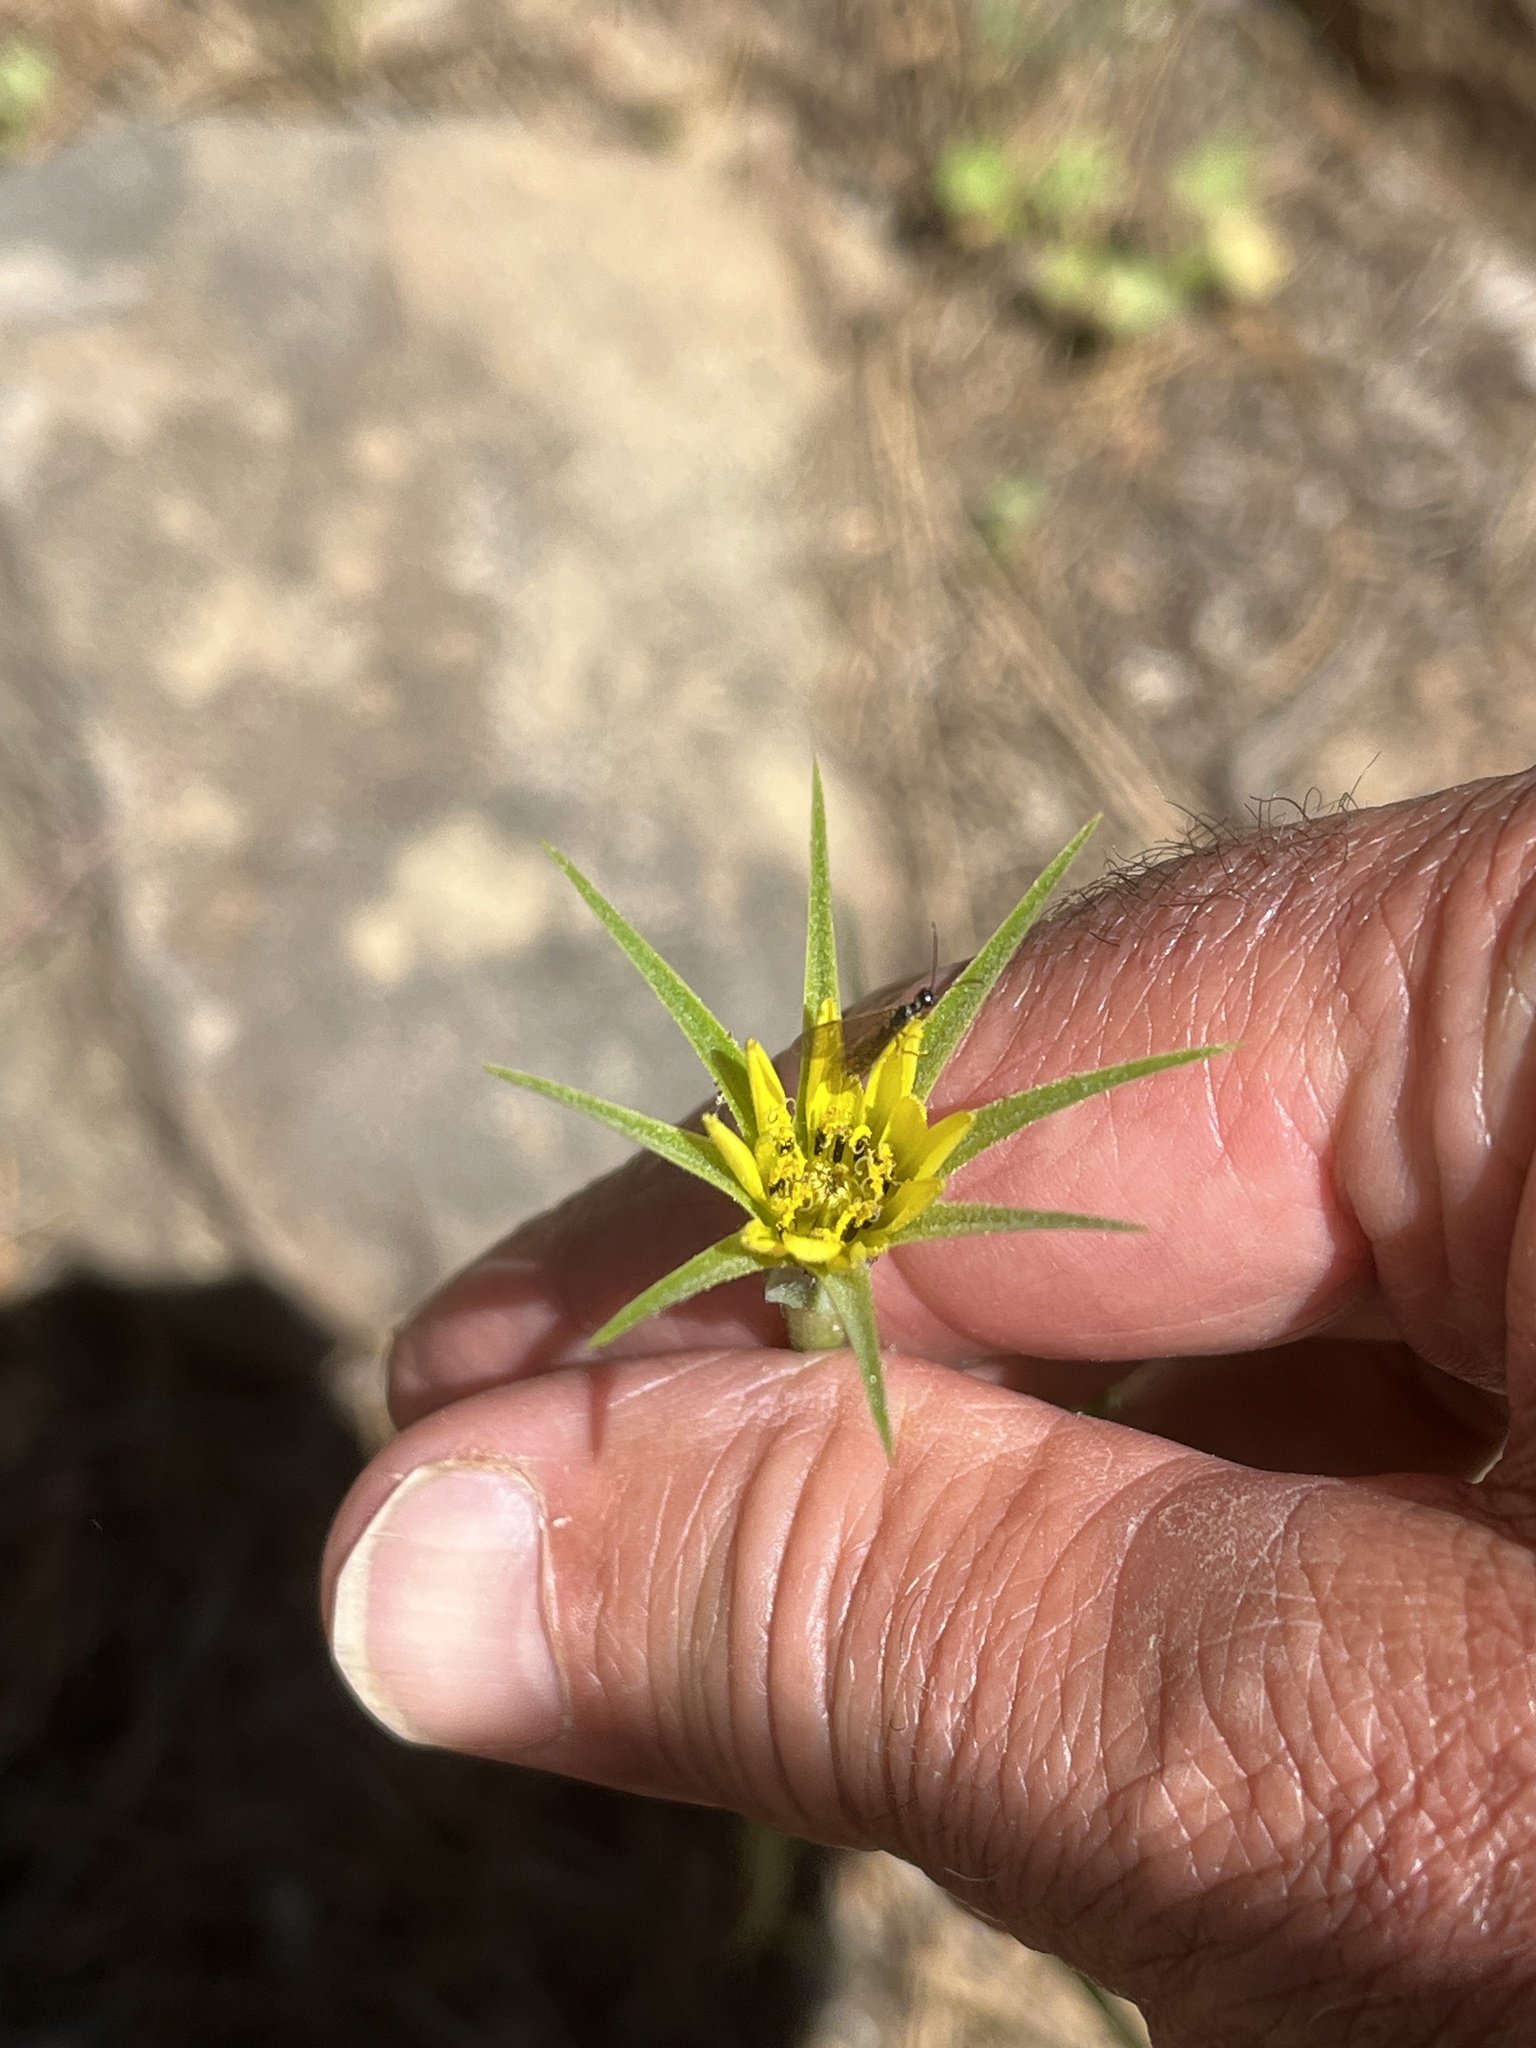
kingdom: Plantae
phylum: Tracheophyta
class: Magnoliopsida
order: Asterales
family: Asteraceae
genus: Tragopogon
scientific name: Tragopogon dubius
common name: Yellow salsify
